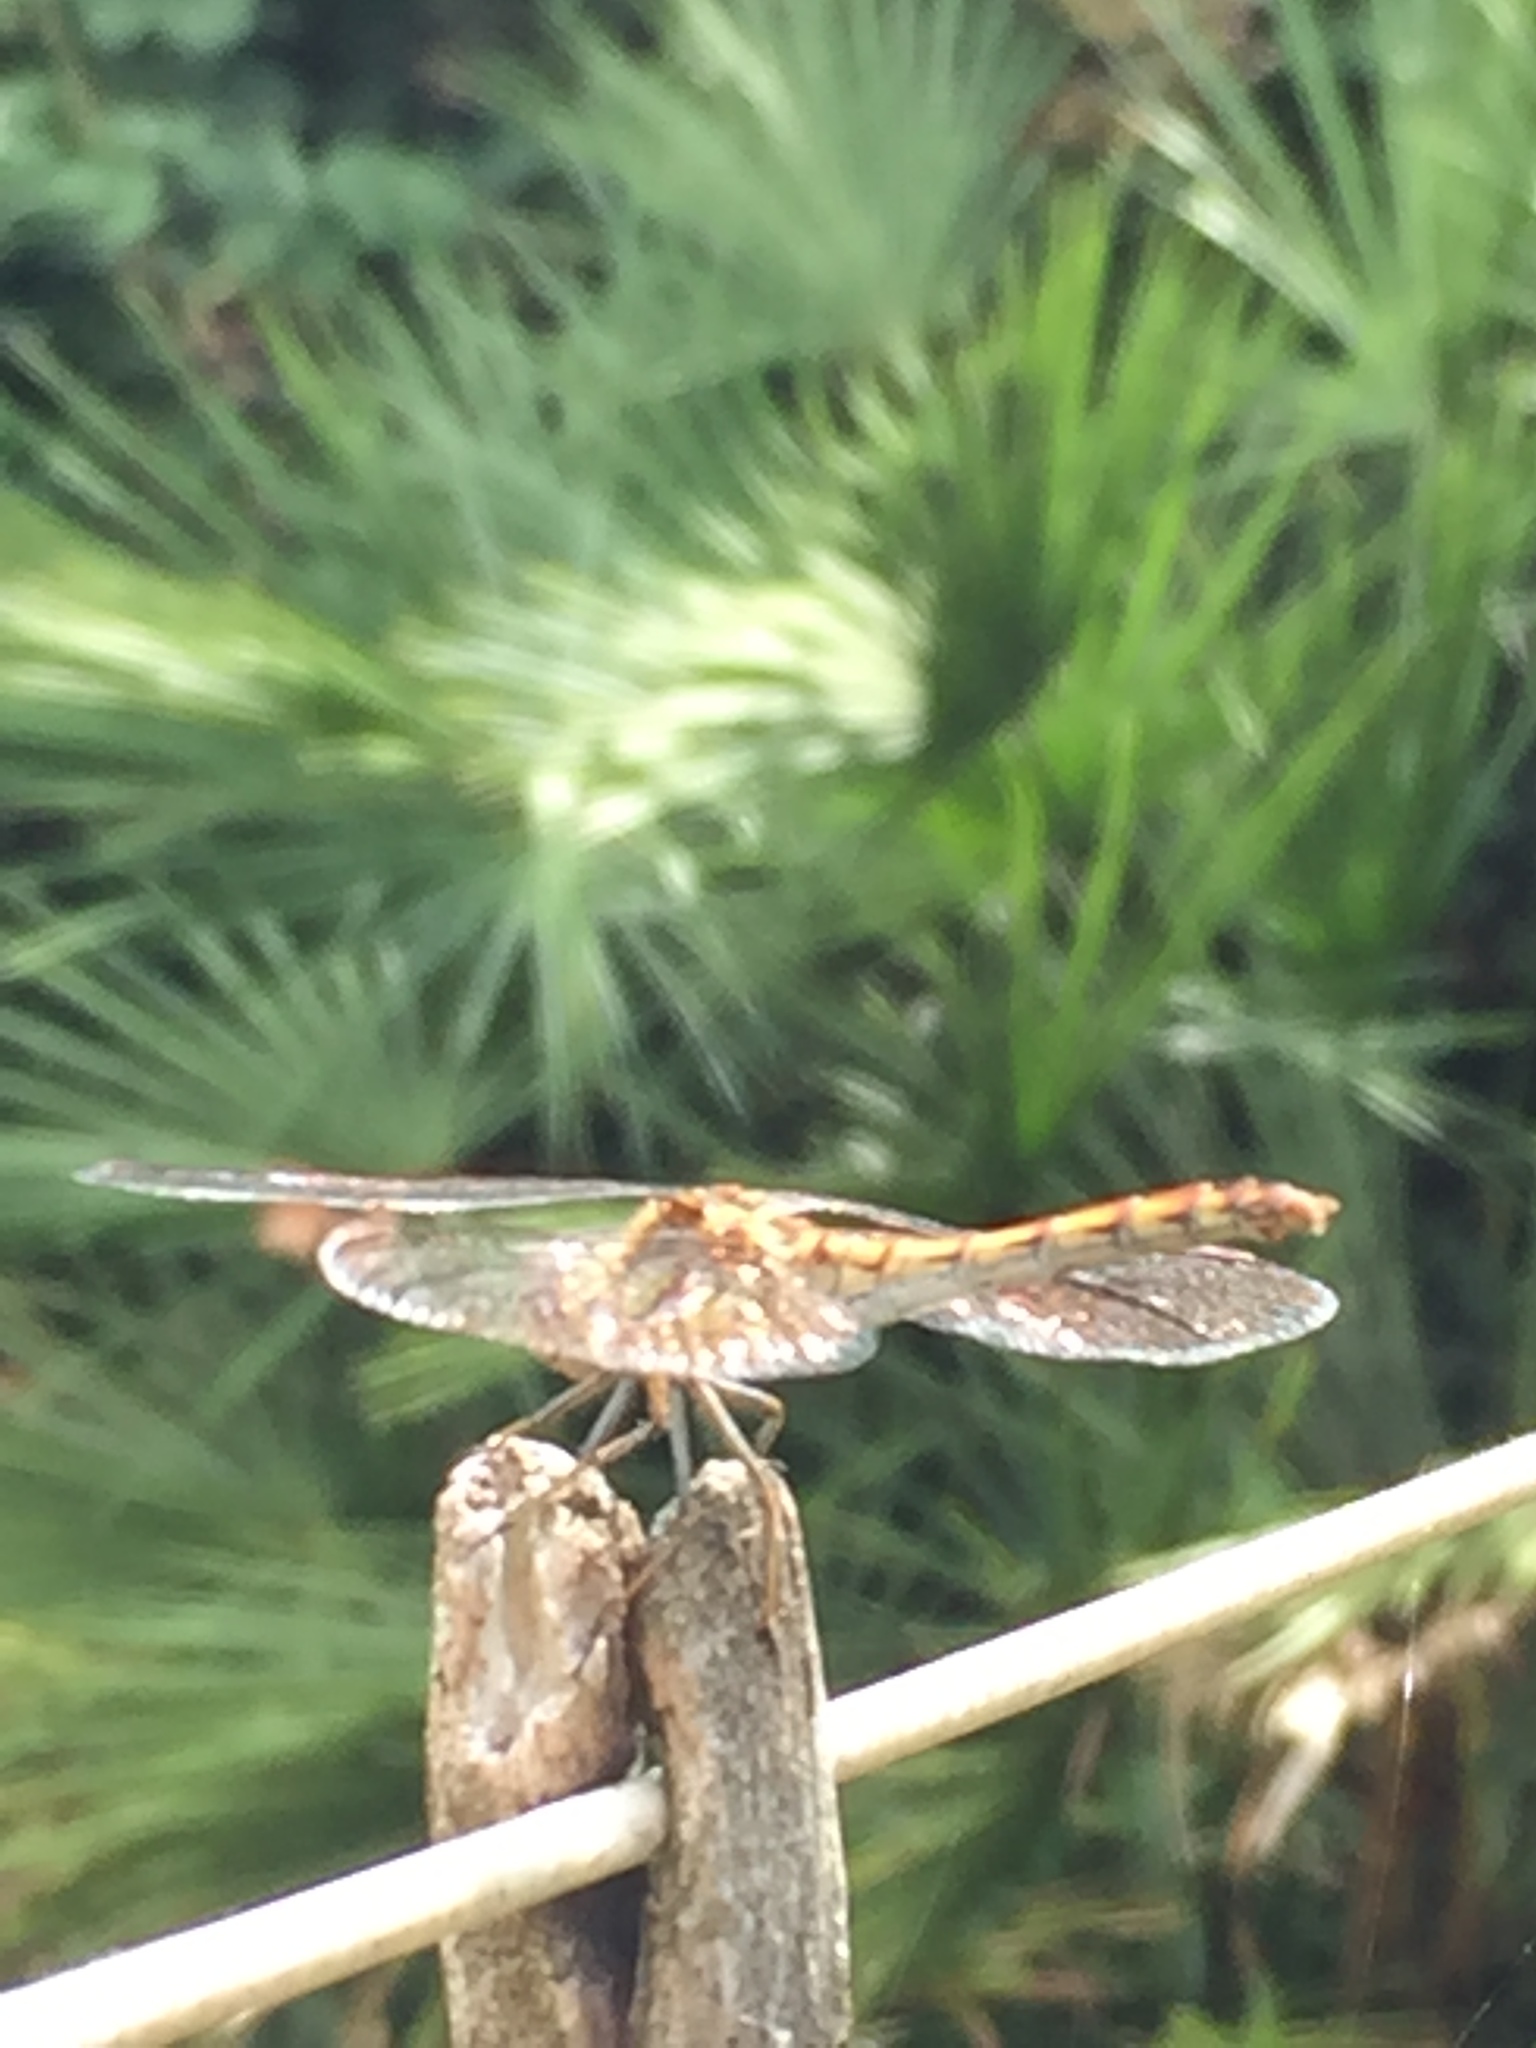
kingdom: Animalia
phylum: Arthropoda
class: Insecta
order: Odonata
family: Libellulidae
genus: Sympetrum
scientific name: Sympetrum striolatum
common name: Common darter
